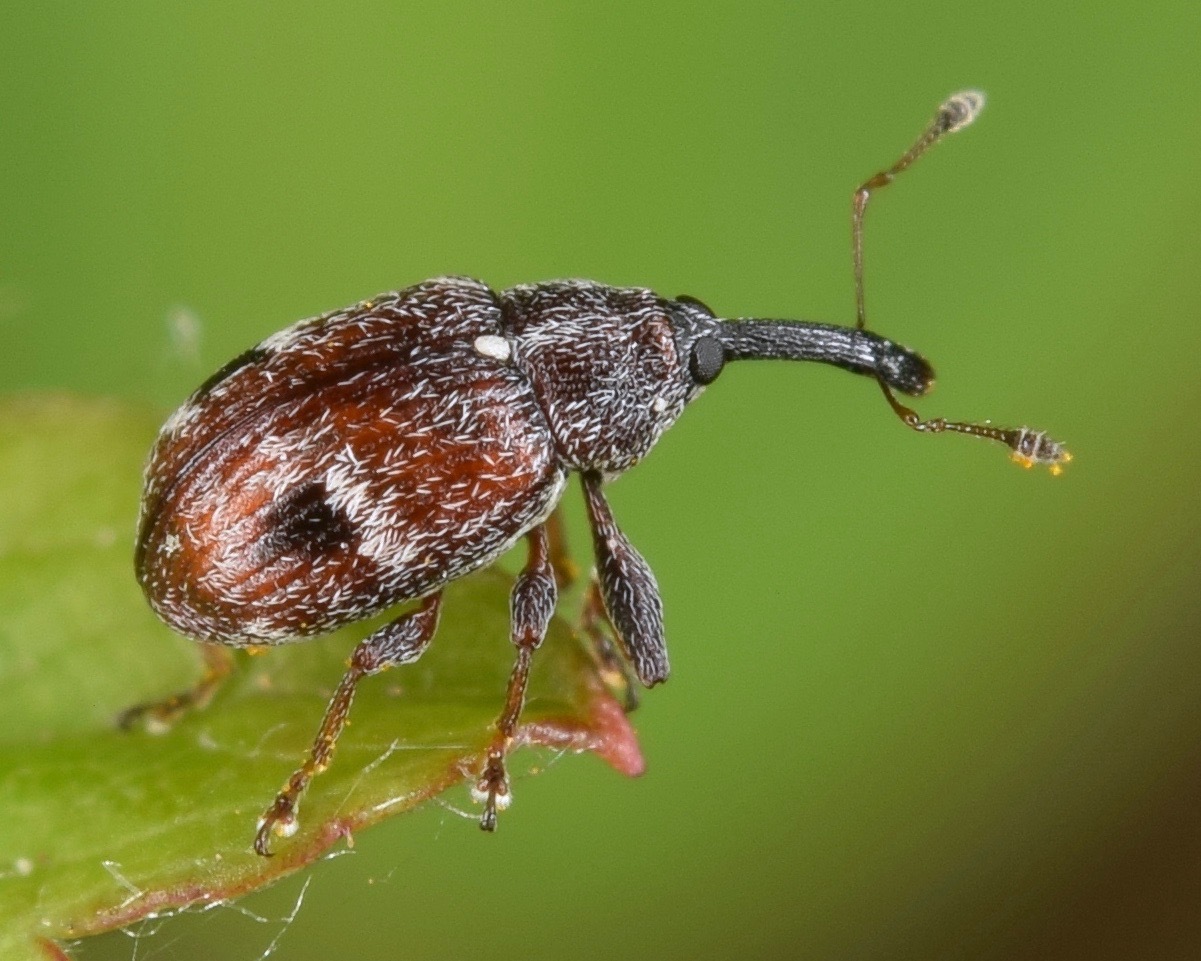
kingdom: Animalia
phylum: Arthropoda
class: Insecta
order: Coleoptera
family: Curculionidae
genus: Anthonomus
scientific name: Anthonomus signatus
